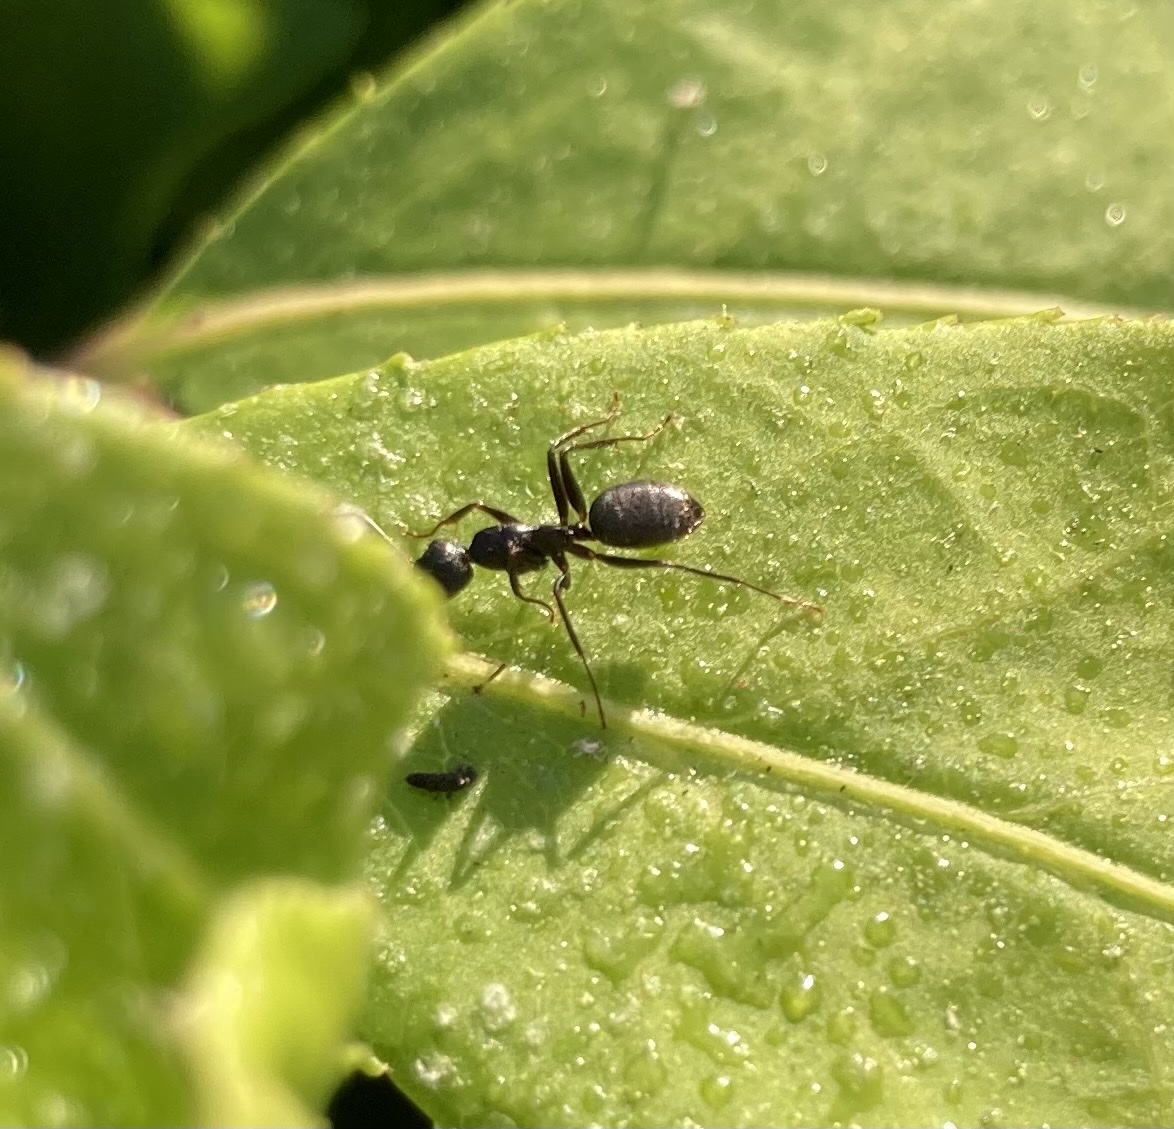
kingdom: Animalia
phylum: Arthropoda
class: Insecta
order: Hymenoptera
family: Formicidae
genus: Camponotus
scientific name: Camponotus pennsylvanicus
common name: Black carpenter ant
